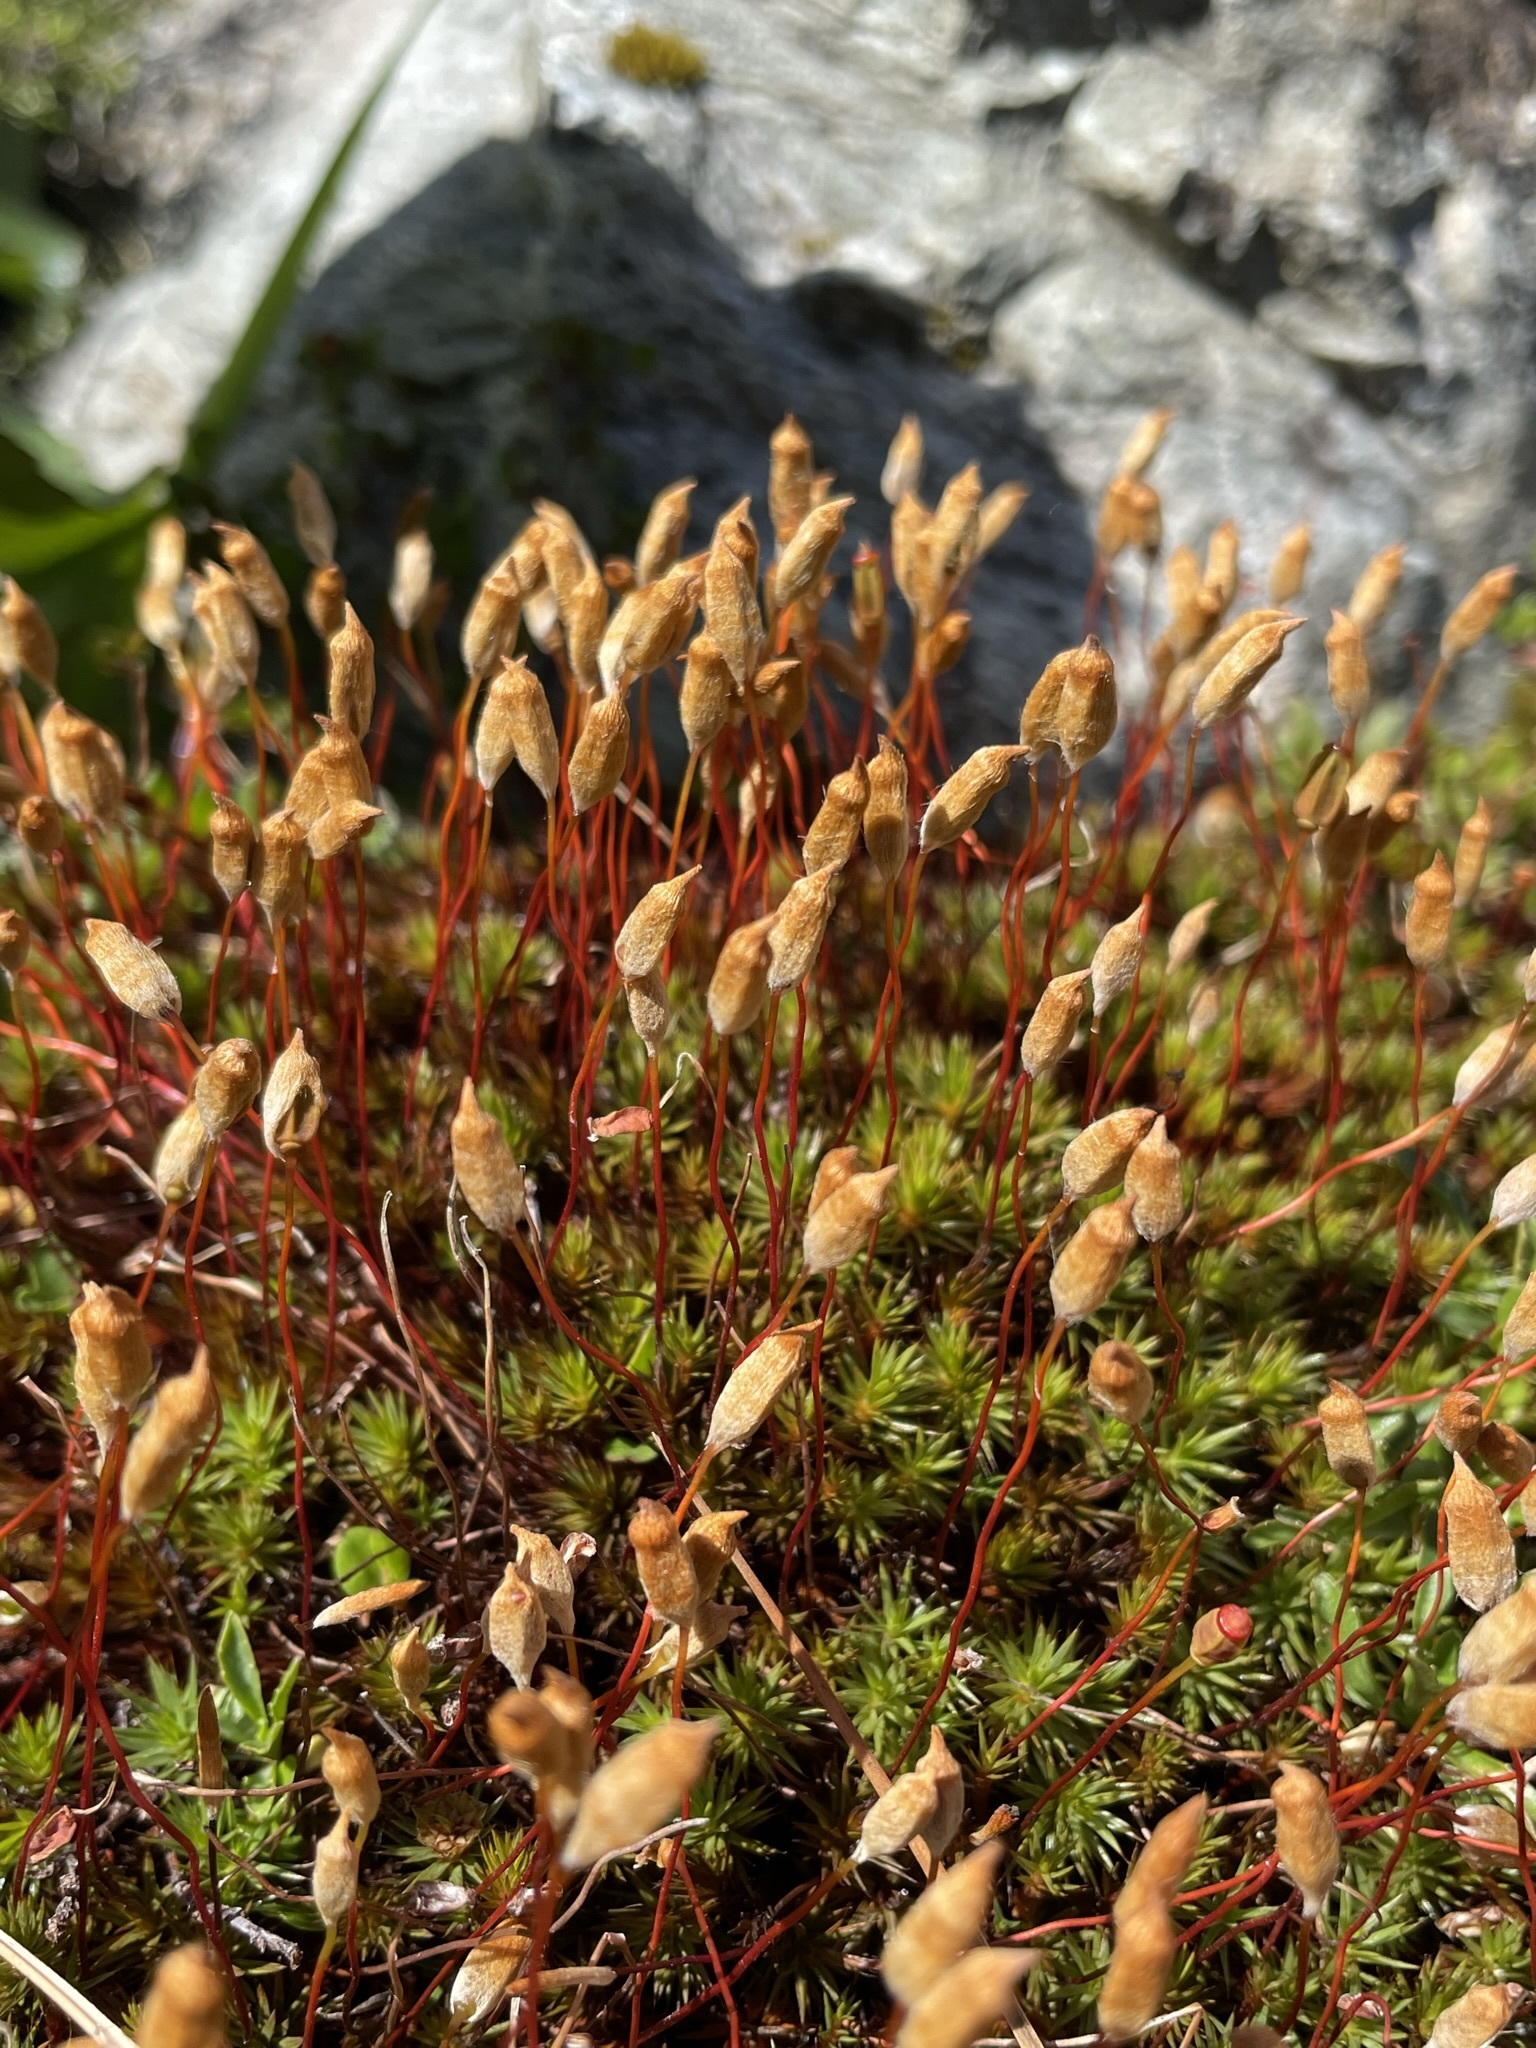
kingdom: Plantae
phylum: Bryophyta
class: Polytrichopsida
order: Polytrichales
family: Polytrichaceae
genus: Polytrichum
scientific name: Polytrichum juniperinum
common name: Juniper haircap moss
